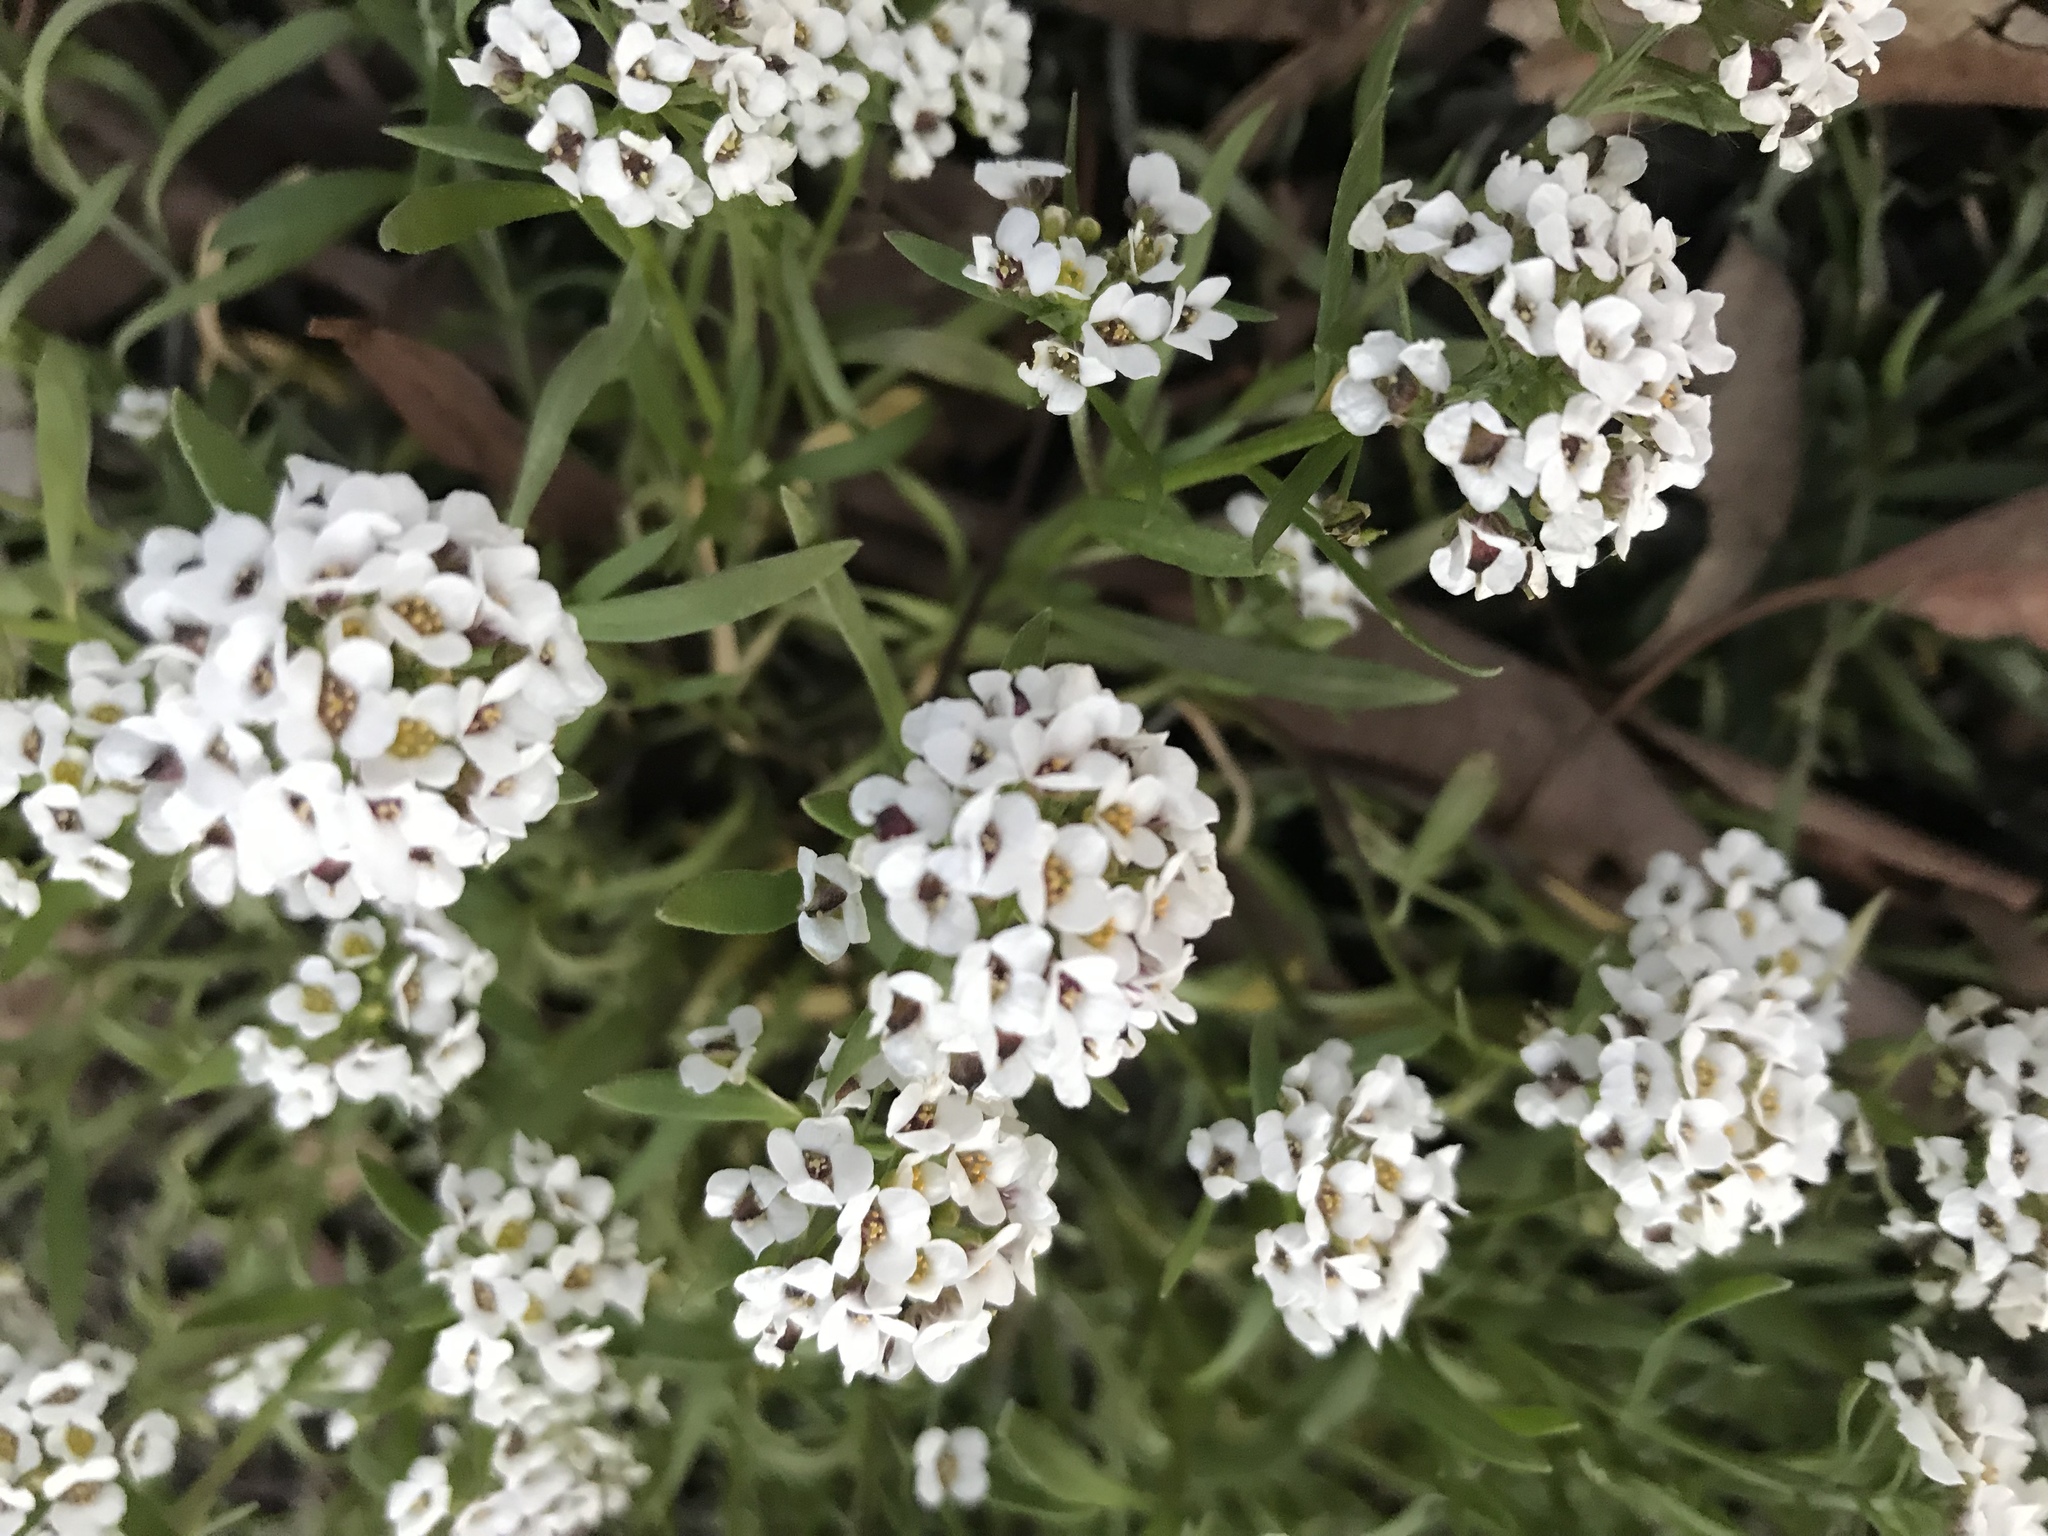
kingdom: Plantae
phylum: Tracheophyta
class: Magnoliopsida
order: Brassicales
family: Brassicaceae
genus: Lobularia
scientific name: Lobularia maritima
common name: Sweet alison
